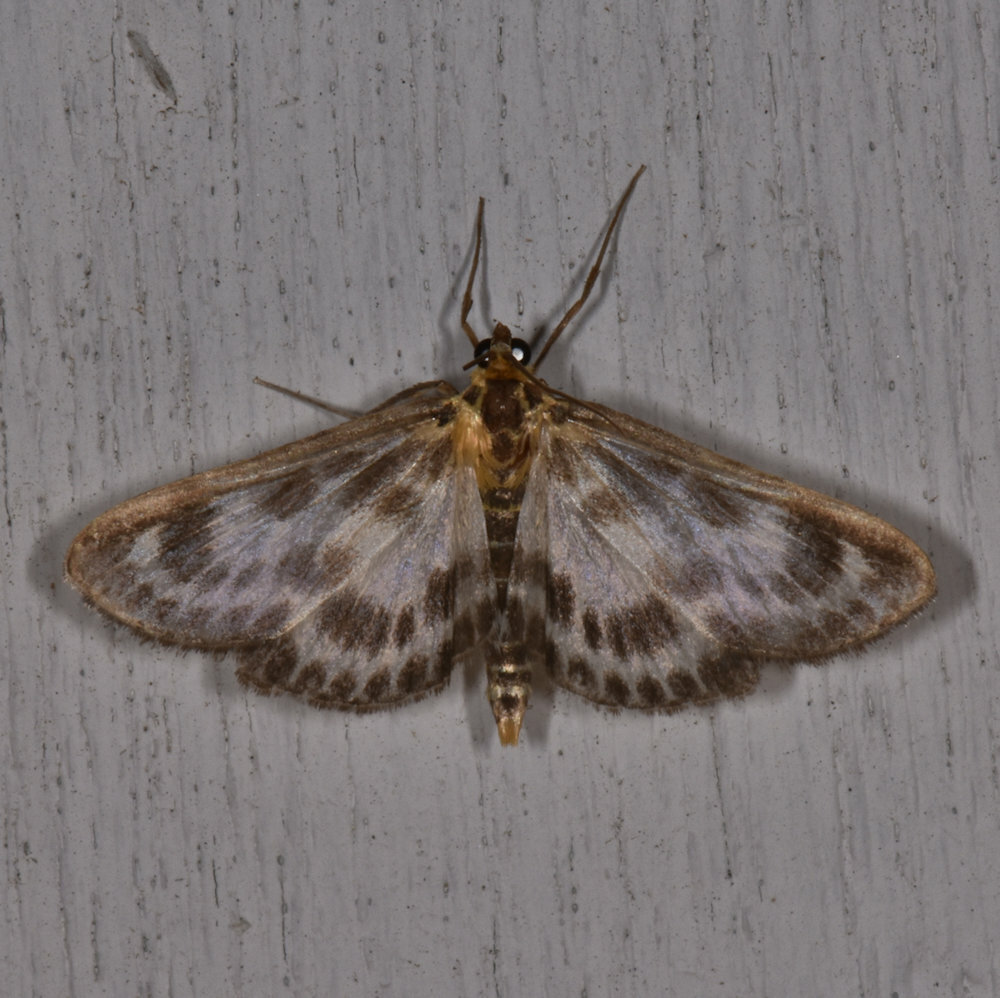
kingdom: Animalia
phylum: Arthropoda
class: Insecta
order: Lepidoptera
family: Crambidae
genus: Anania
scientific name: Anania hortulata
